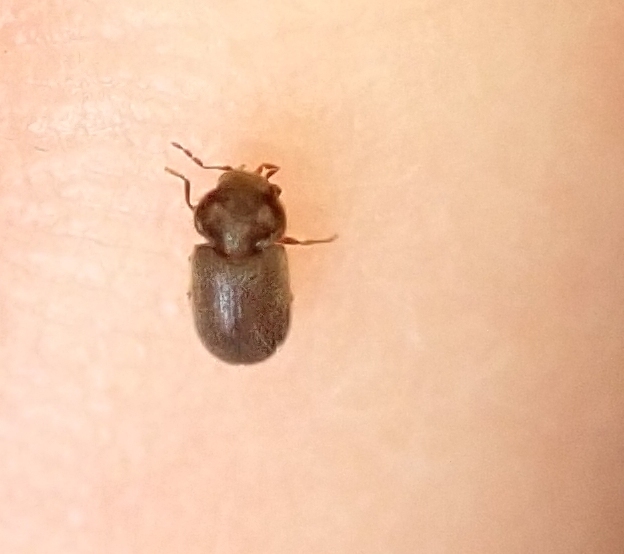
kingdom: Animalia
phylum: Arthropoda
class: Insecta
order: Coleoptera
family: Anobiidae
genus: Stegobium
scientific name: Stegobium paniceum
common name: Drugstore beetle
